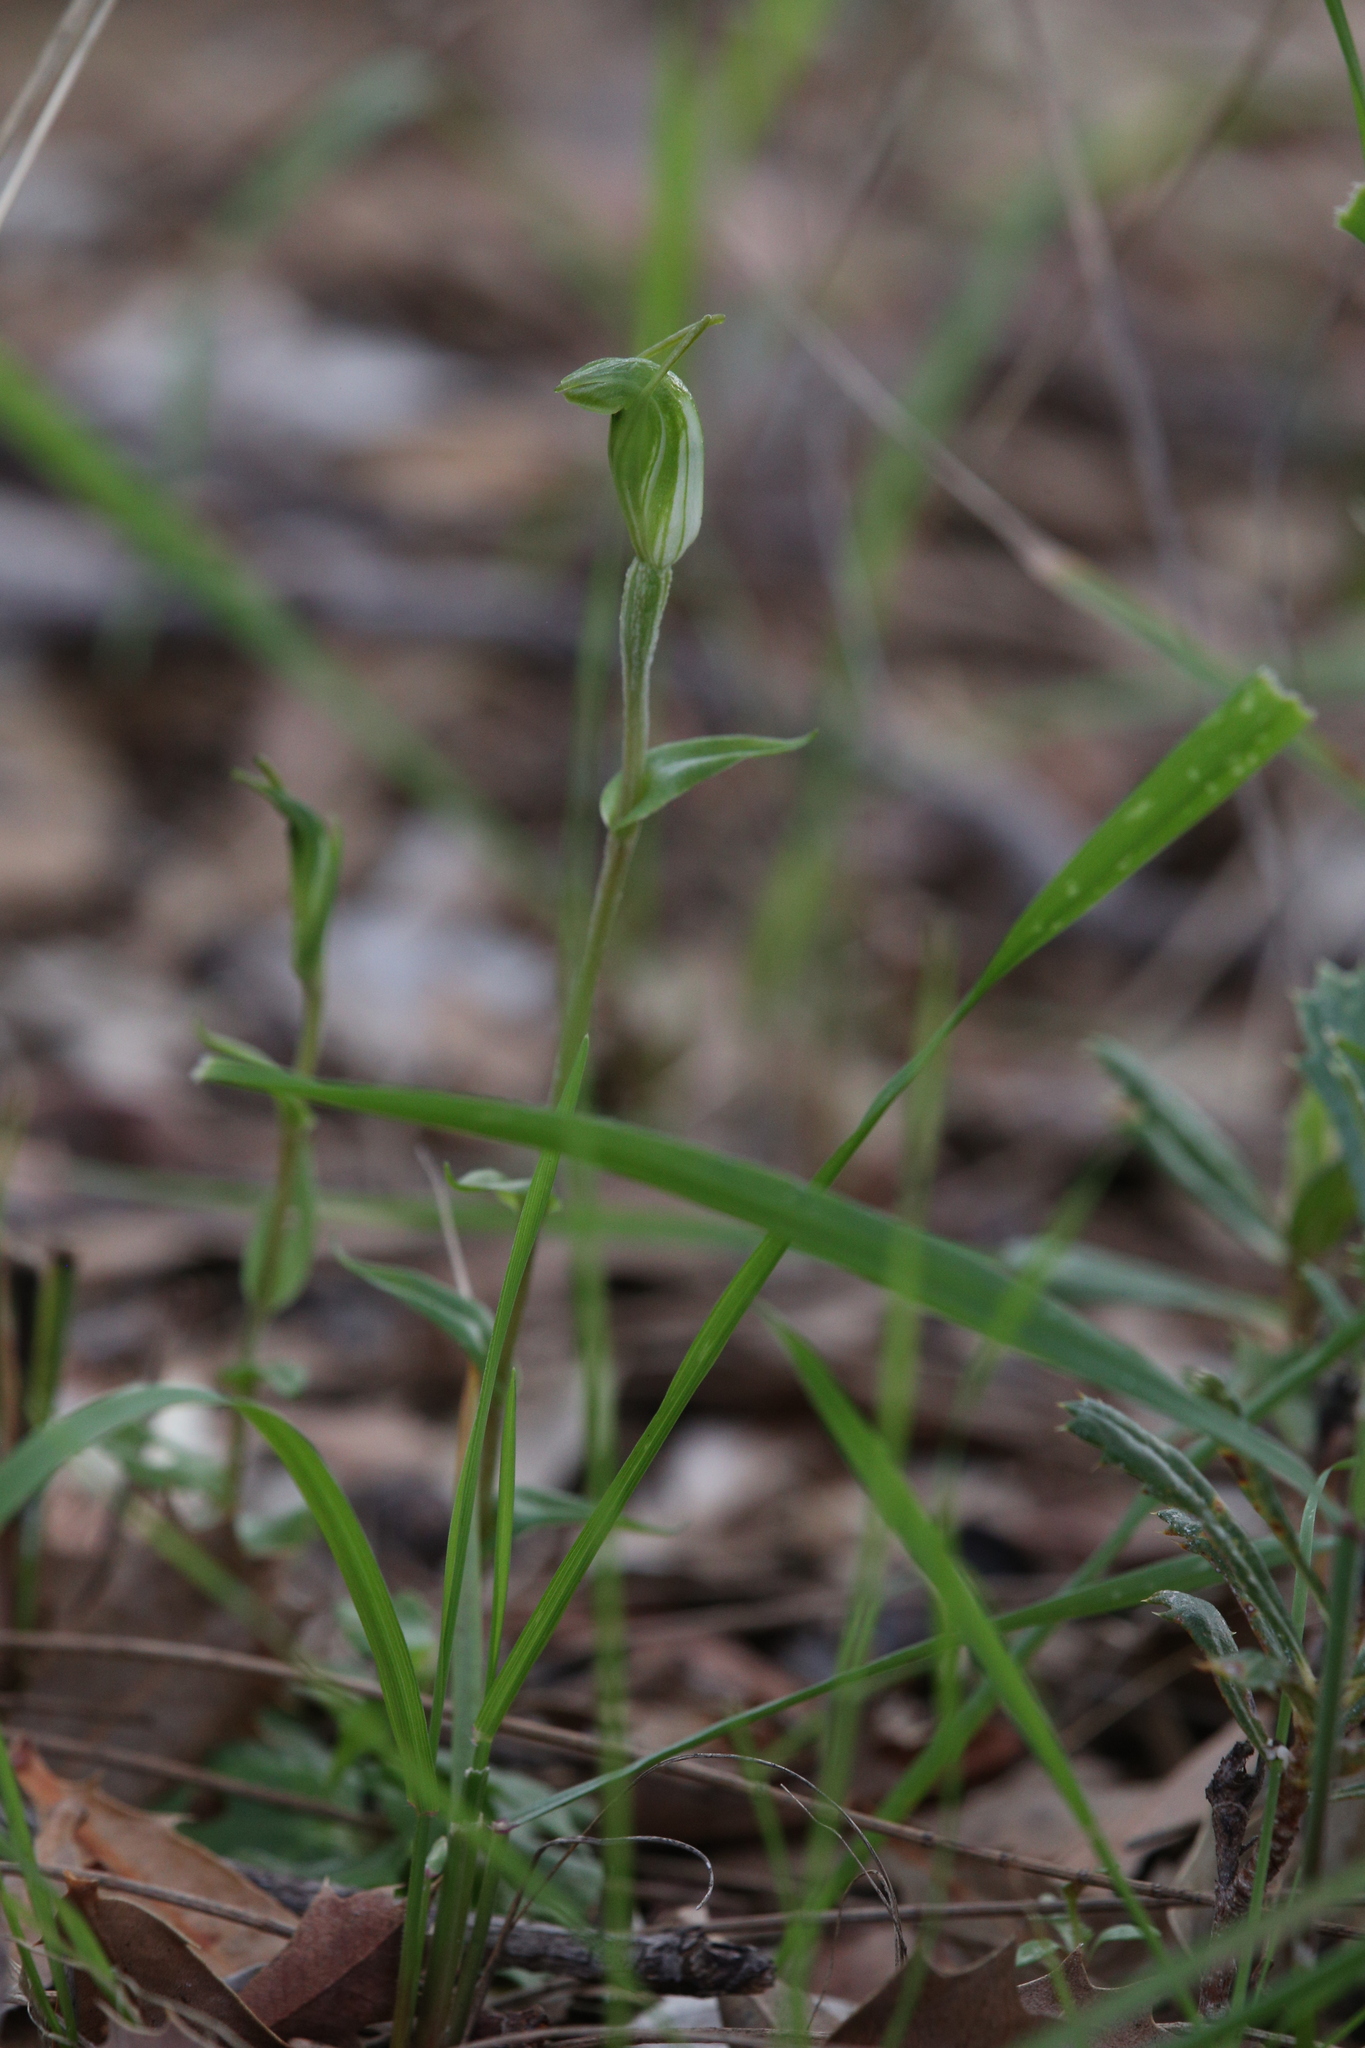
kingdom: Plantae
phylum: Tracheophyta
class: Liliopsida
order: Asparagales
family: Orchidaceae
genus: Pterostylis
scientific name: Pterostylis ectypha
